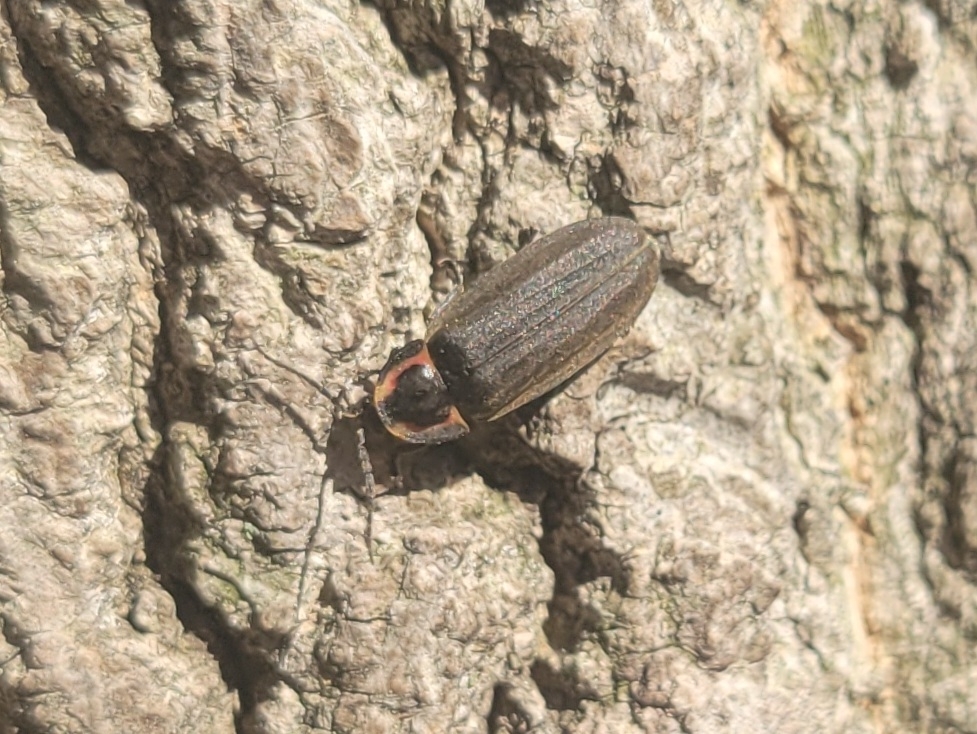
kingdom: Animalia
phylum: Arthropoda
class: Insecta
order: Coleoptera
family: Lampyridae
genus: Photinus
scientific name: Photinus corrusca
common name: Winter firefly
